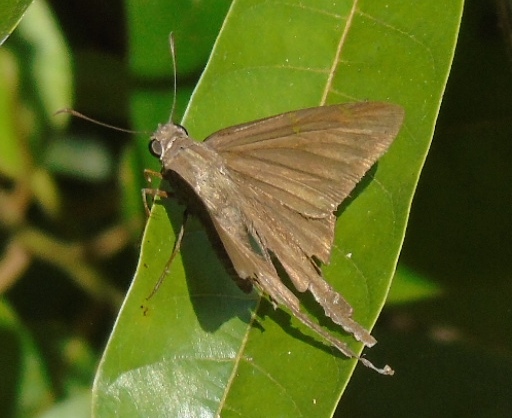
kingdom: Animalia
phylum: Arthropoda
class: Insecta
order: Lepidoptera
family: Hesperiidae
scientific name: Hesperiidae
